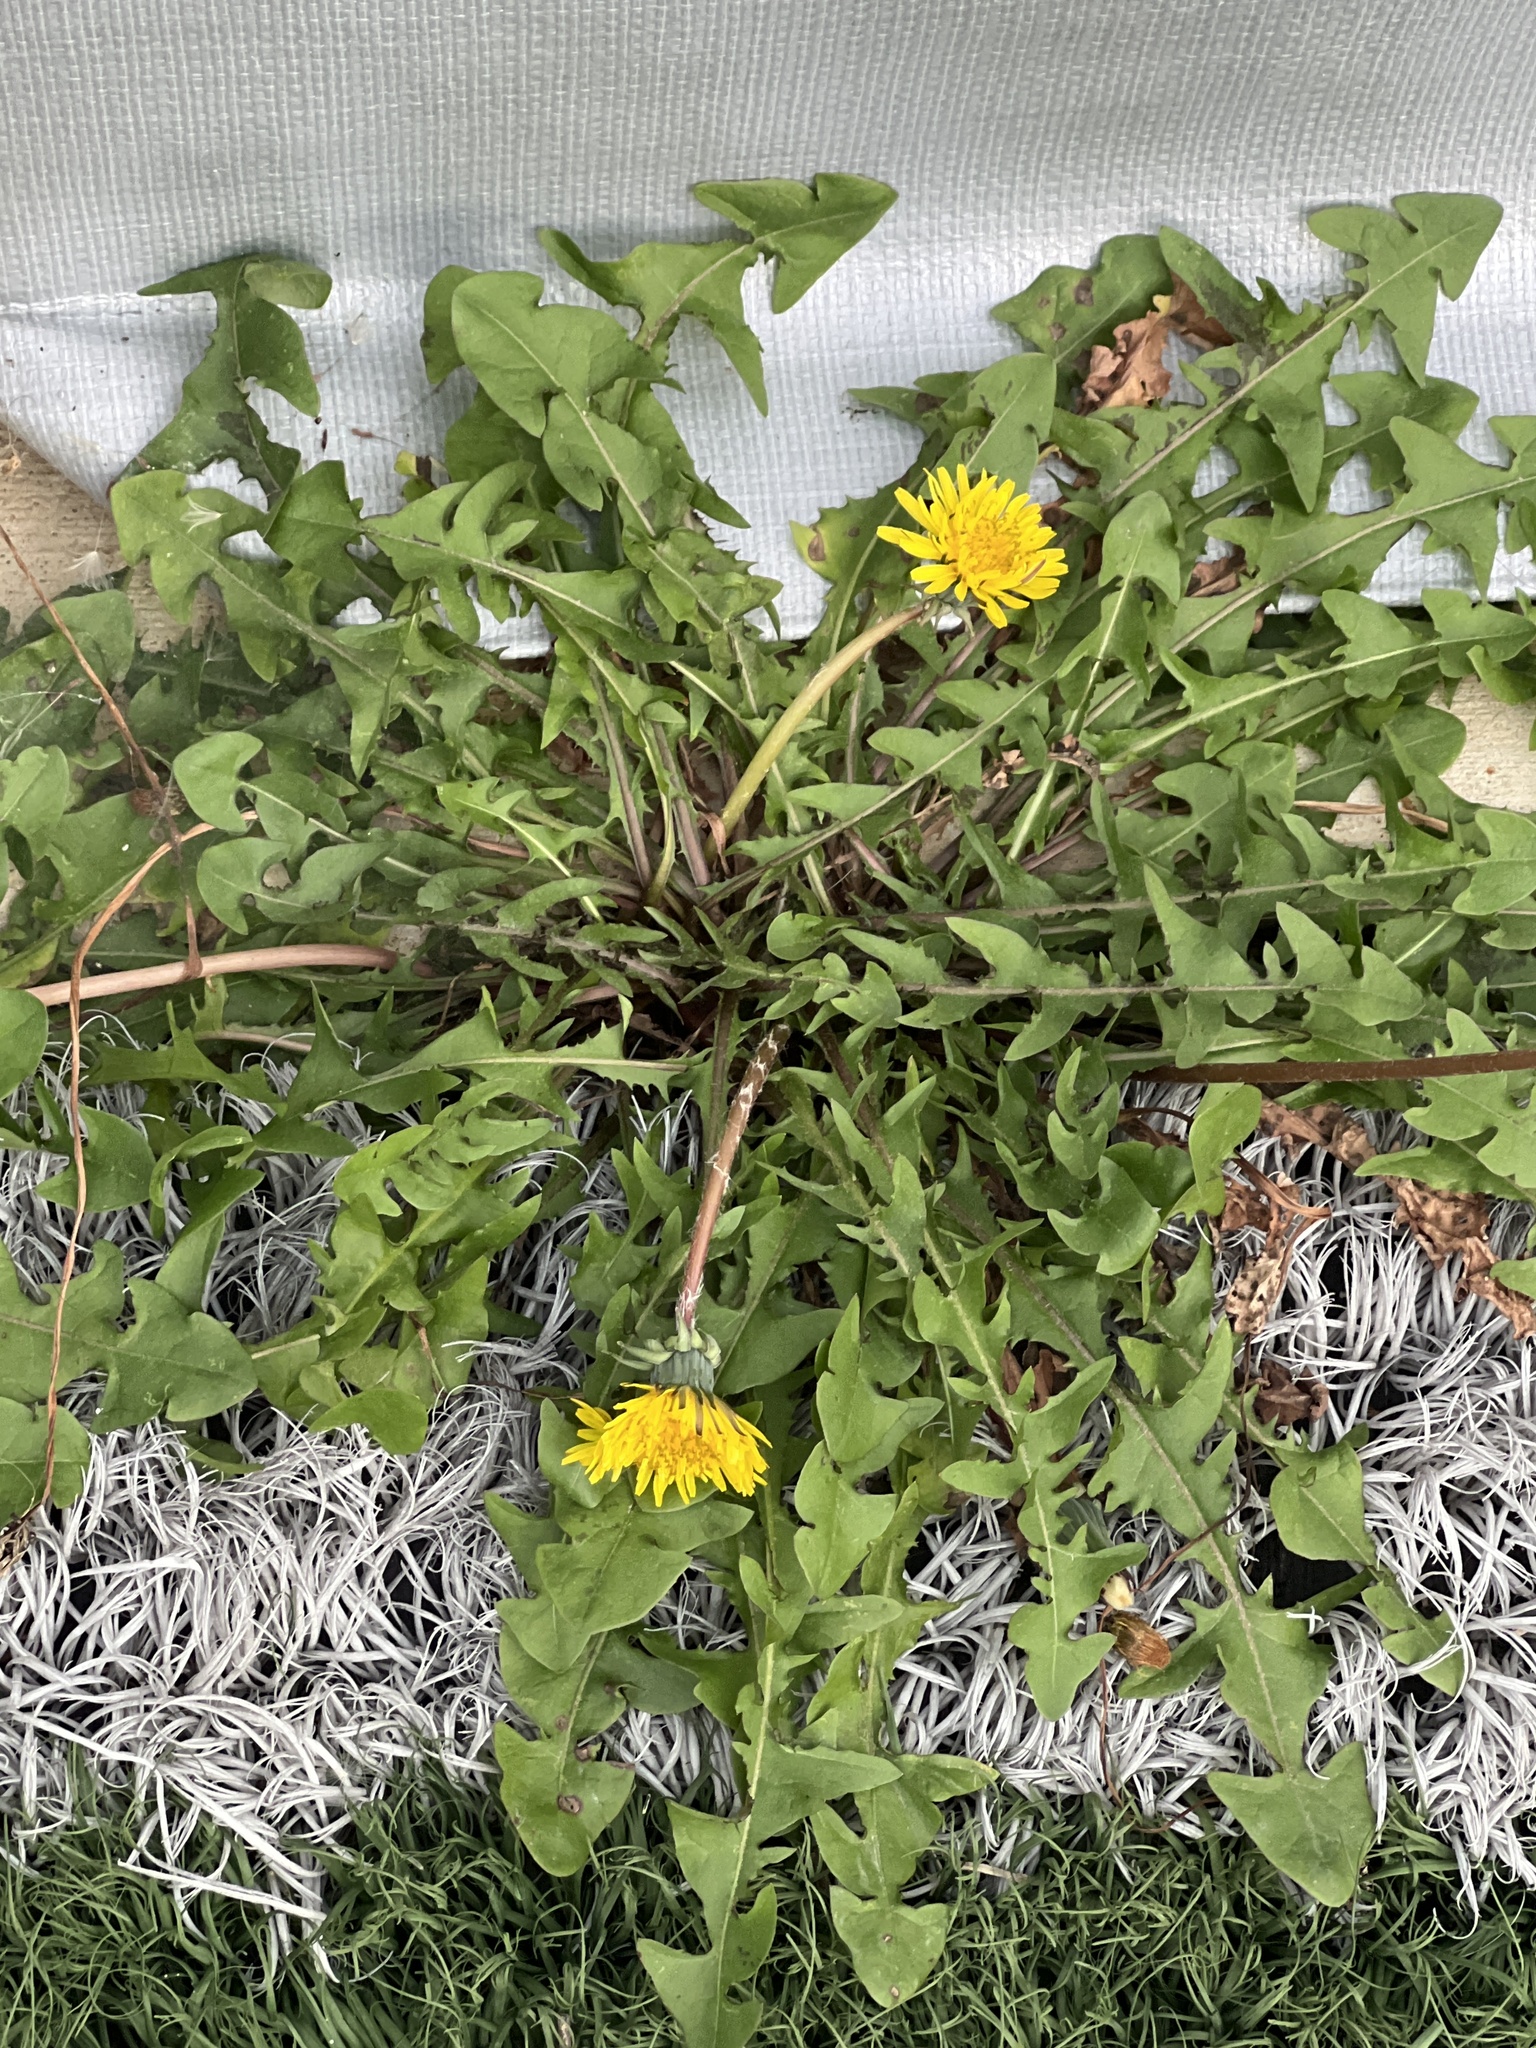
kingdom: Plantae
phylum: Tracheophyta
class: Magnoliopsida
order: Asterales
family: Asteraceae
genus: Taraxacum
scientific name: Taraxacum officinale
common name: Common dandelion
